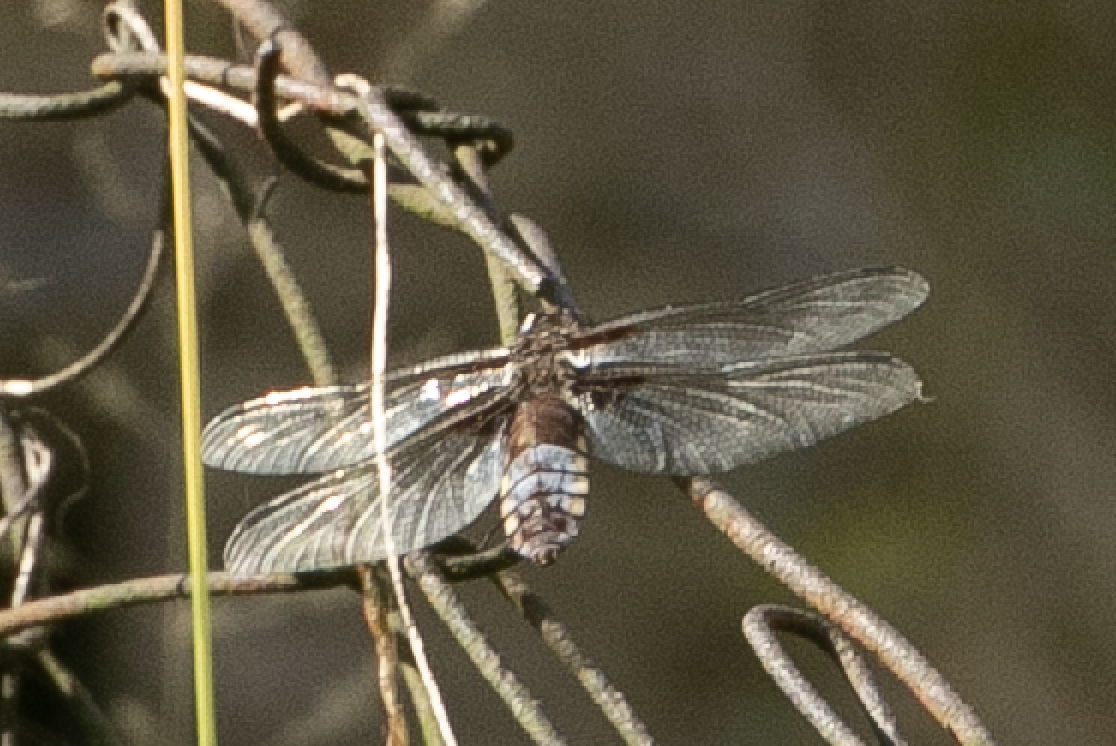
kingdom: Animalia
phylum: Arthropoda
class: Insecta
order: Odonata
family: Libellulidae
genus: Libellula
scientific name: Libellula depressa
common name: Broad-bodied chaser
